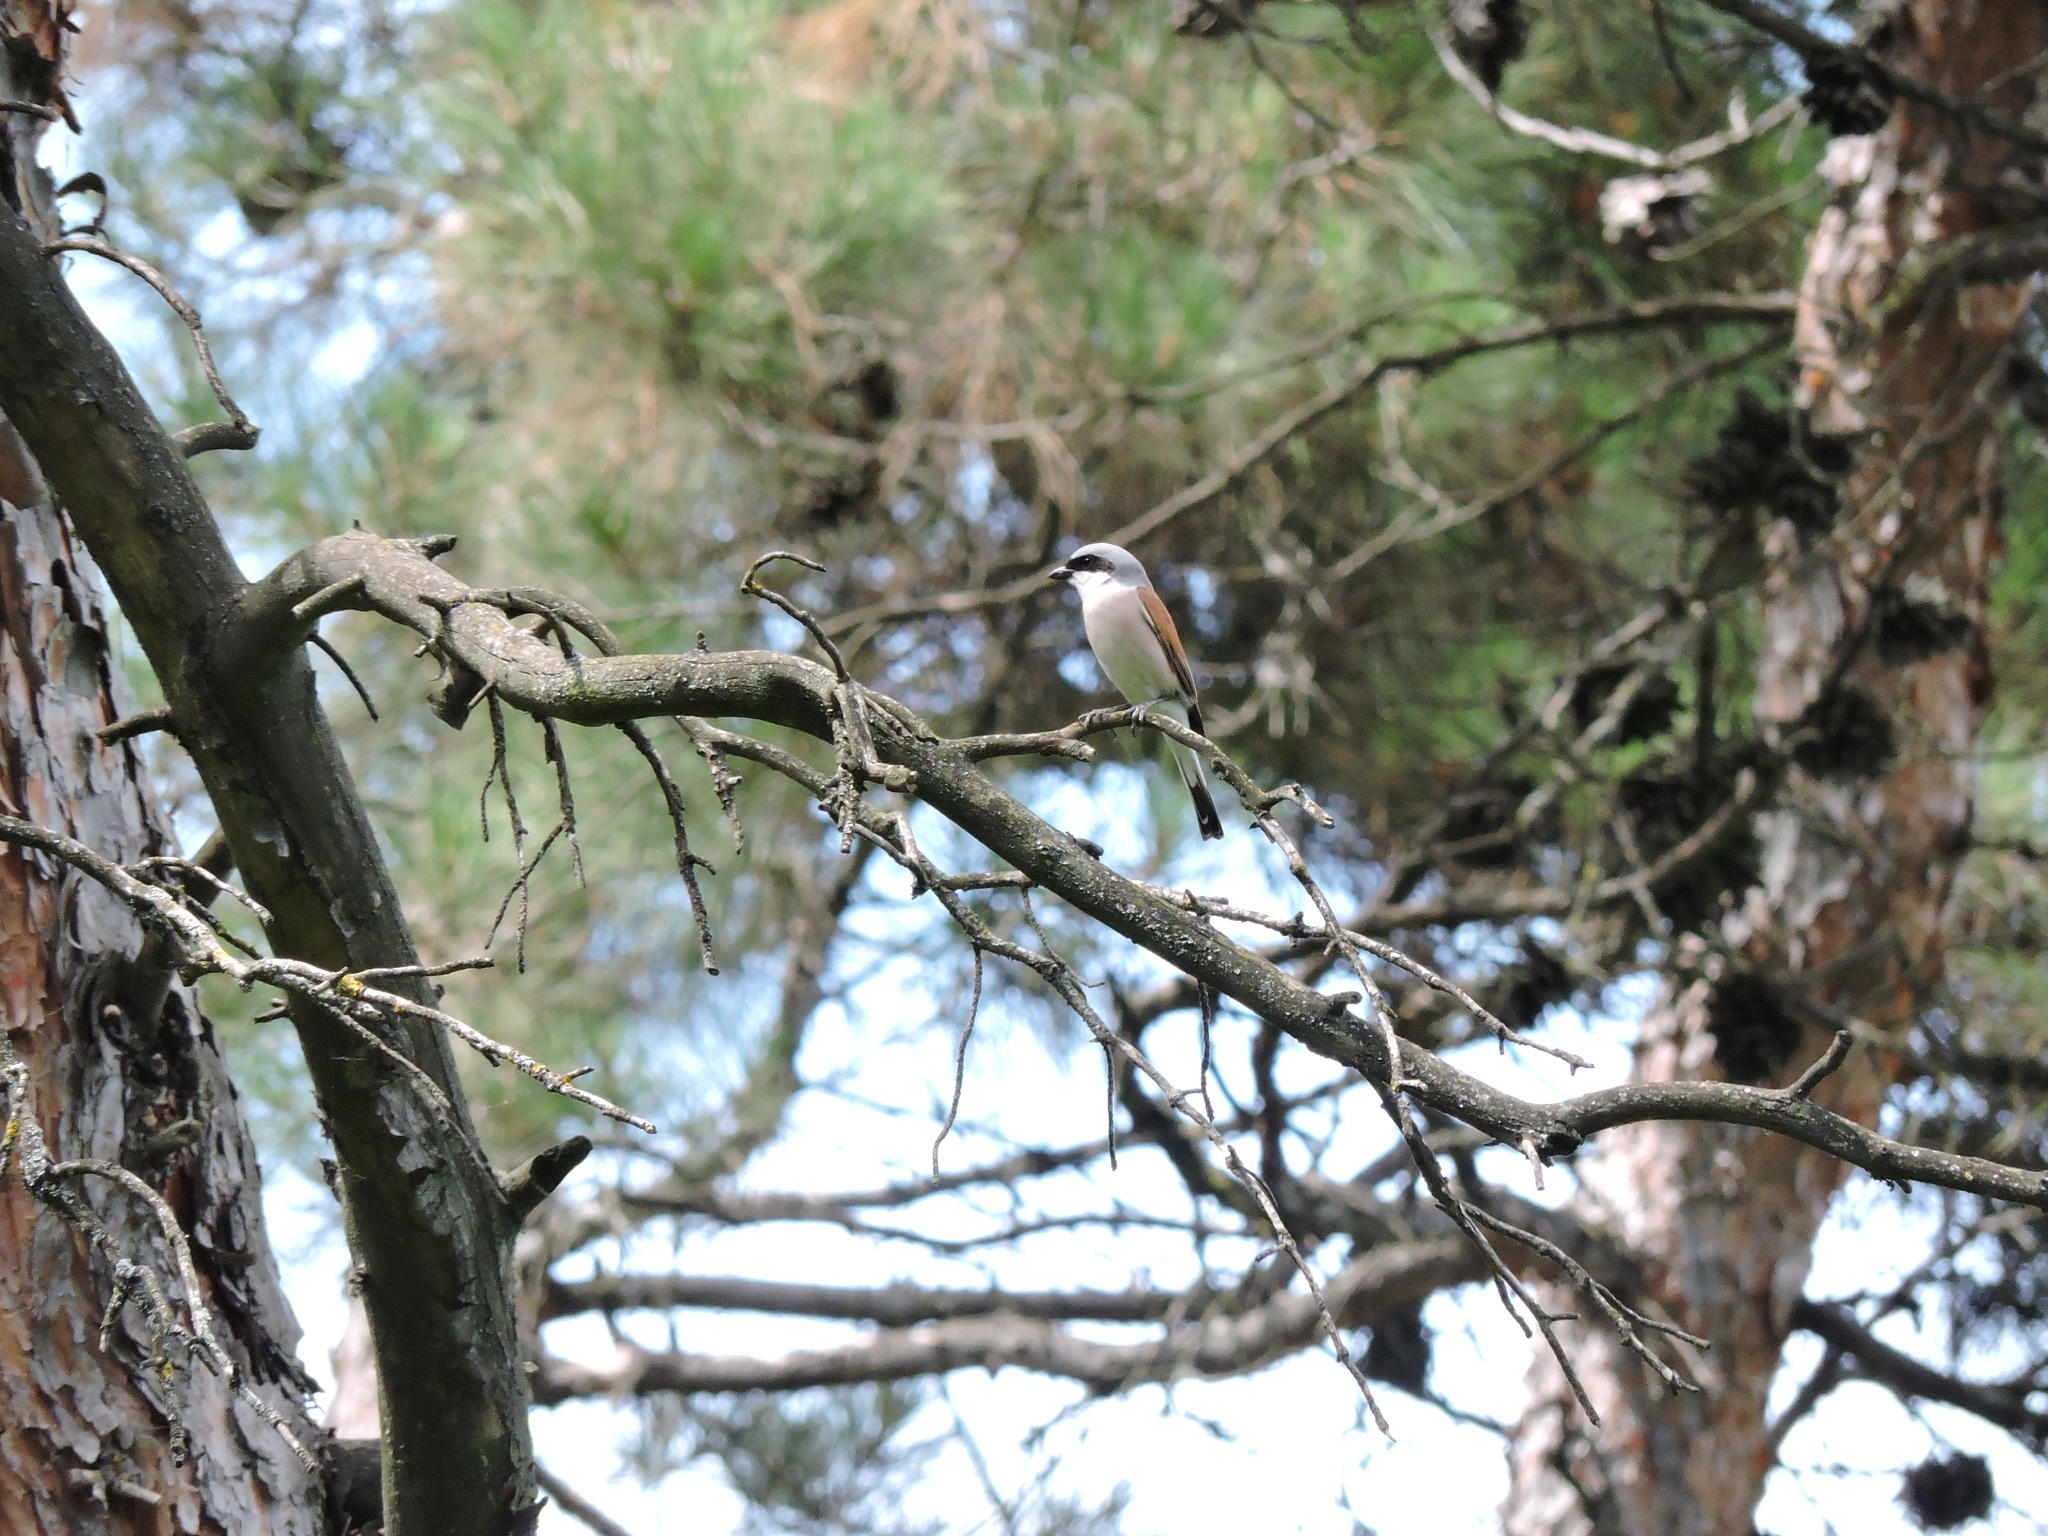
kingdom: Animalia
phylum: Chordata
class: Aves
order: Passeriformes
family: Laniidae
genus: Lanius
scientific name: Lanius collurio
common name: Red-backed shrike
